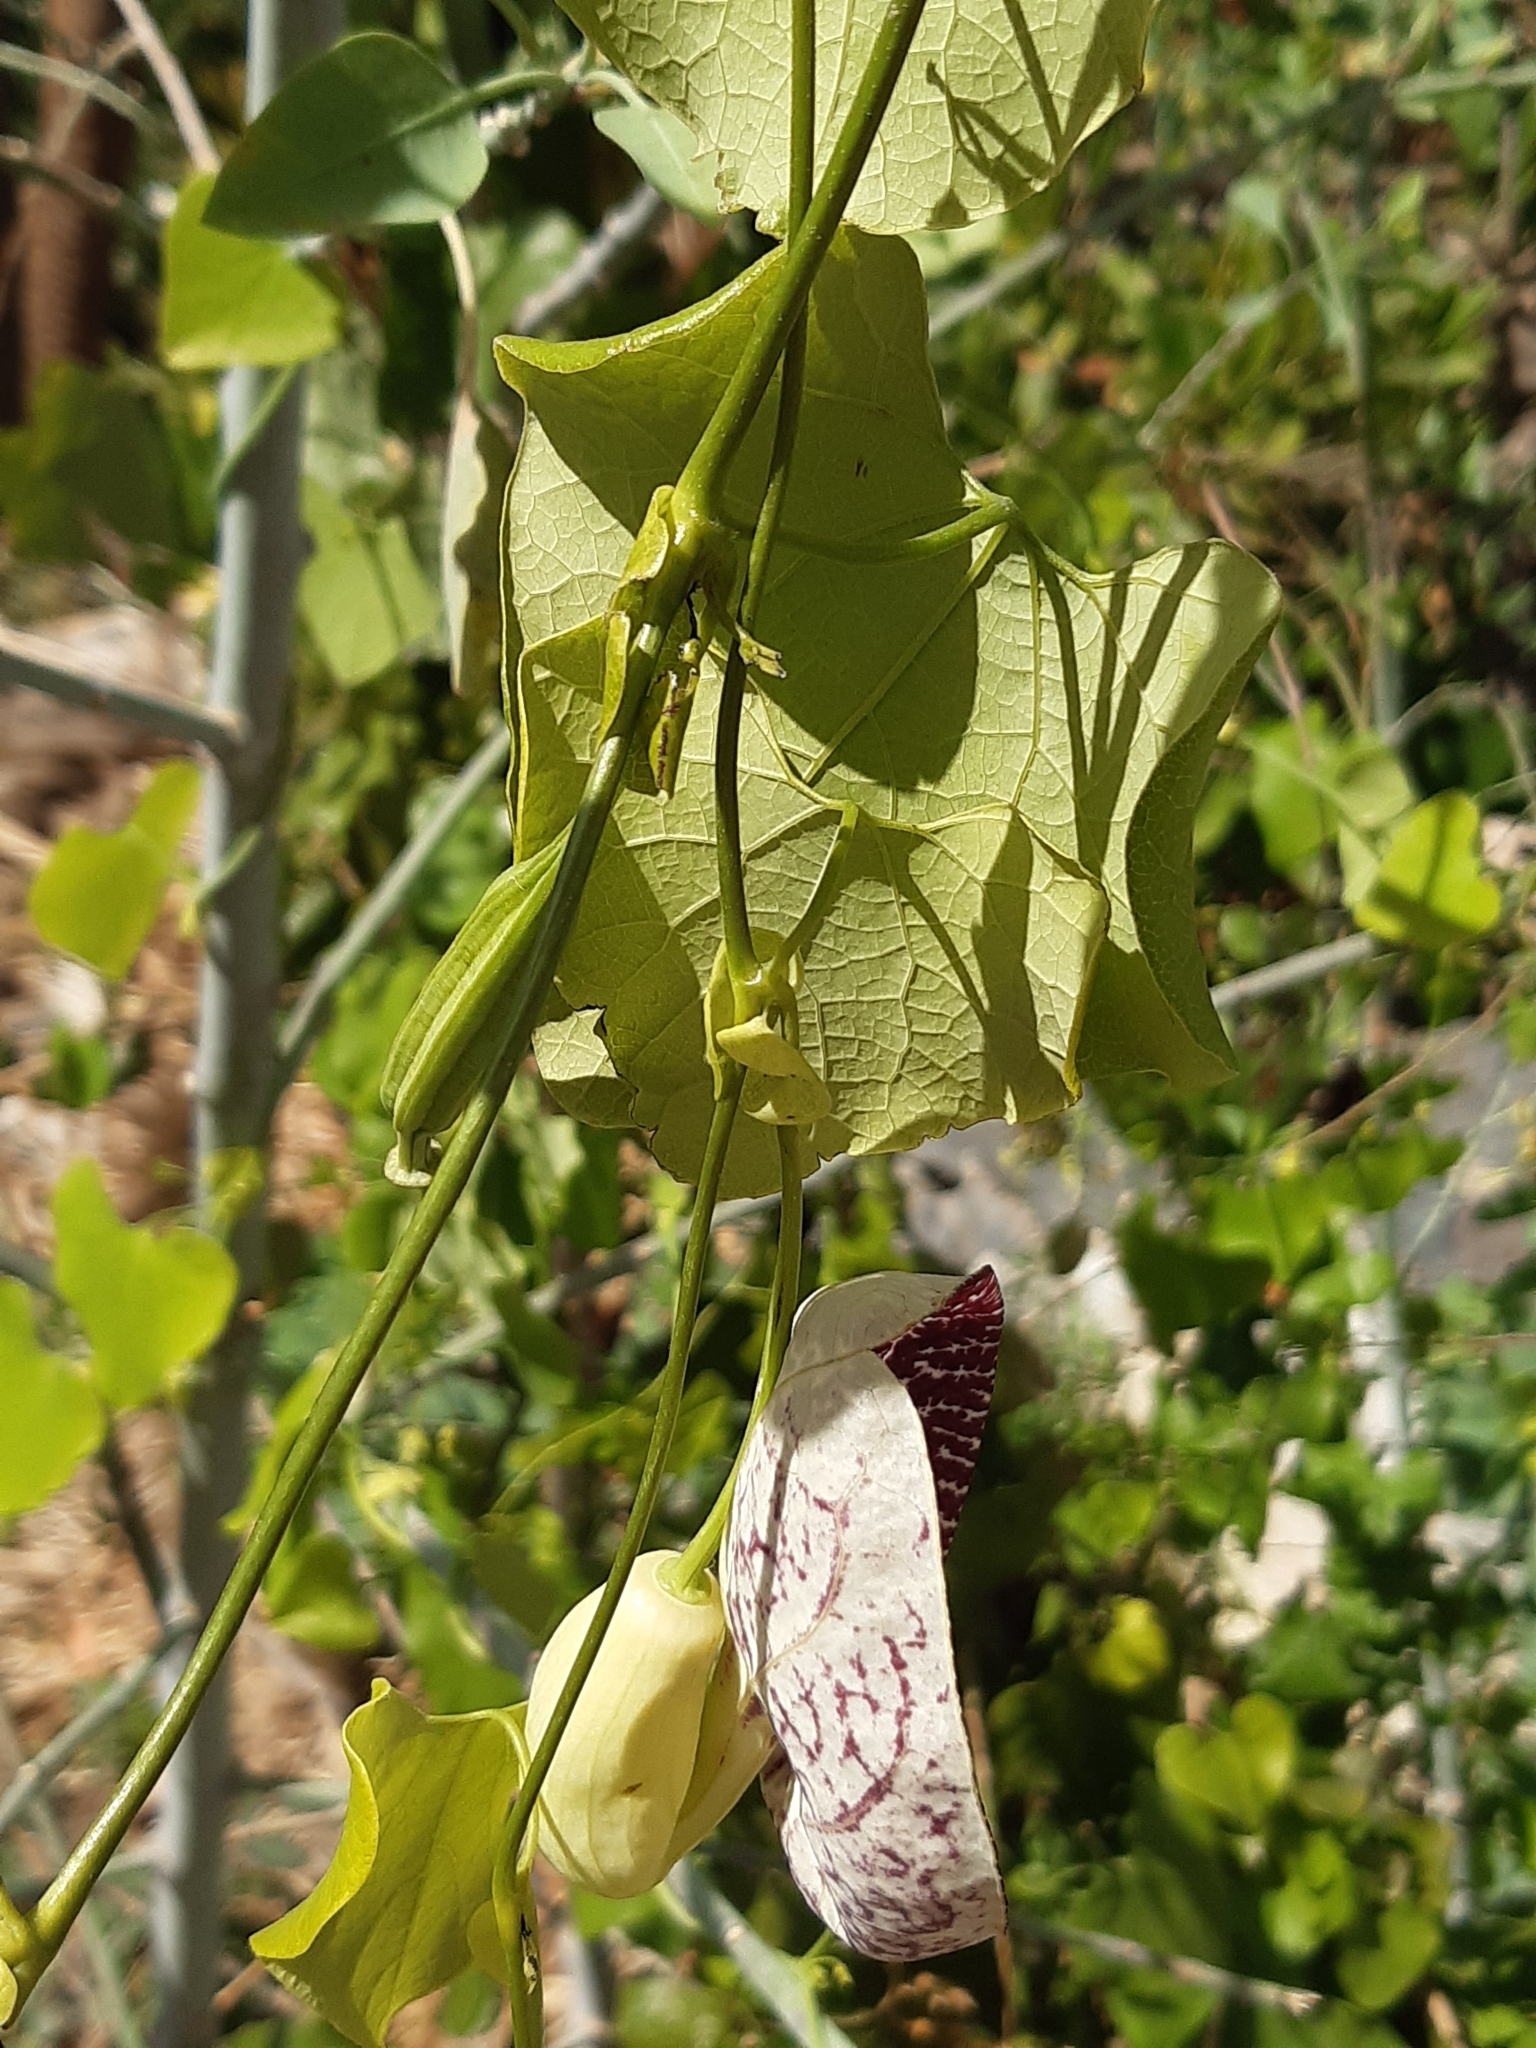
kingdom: Plantae
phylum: Tracheophyta
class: Magnoliopsida
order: Piperales
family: Aristolochiaceae
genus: Aristolochia
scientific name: Aristolochia littoralis
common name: Duck
